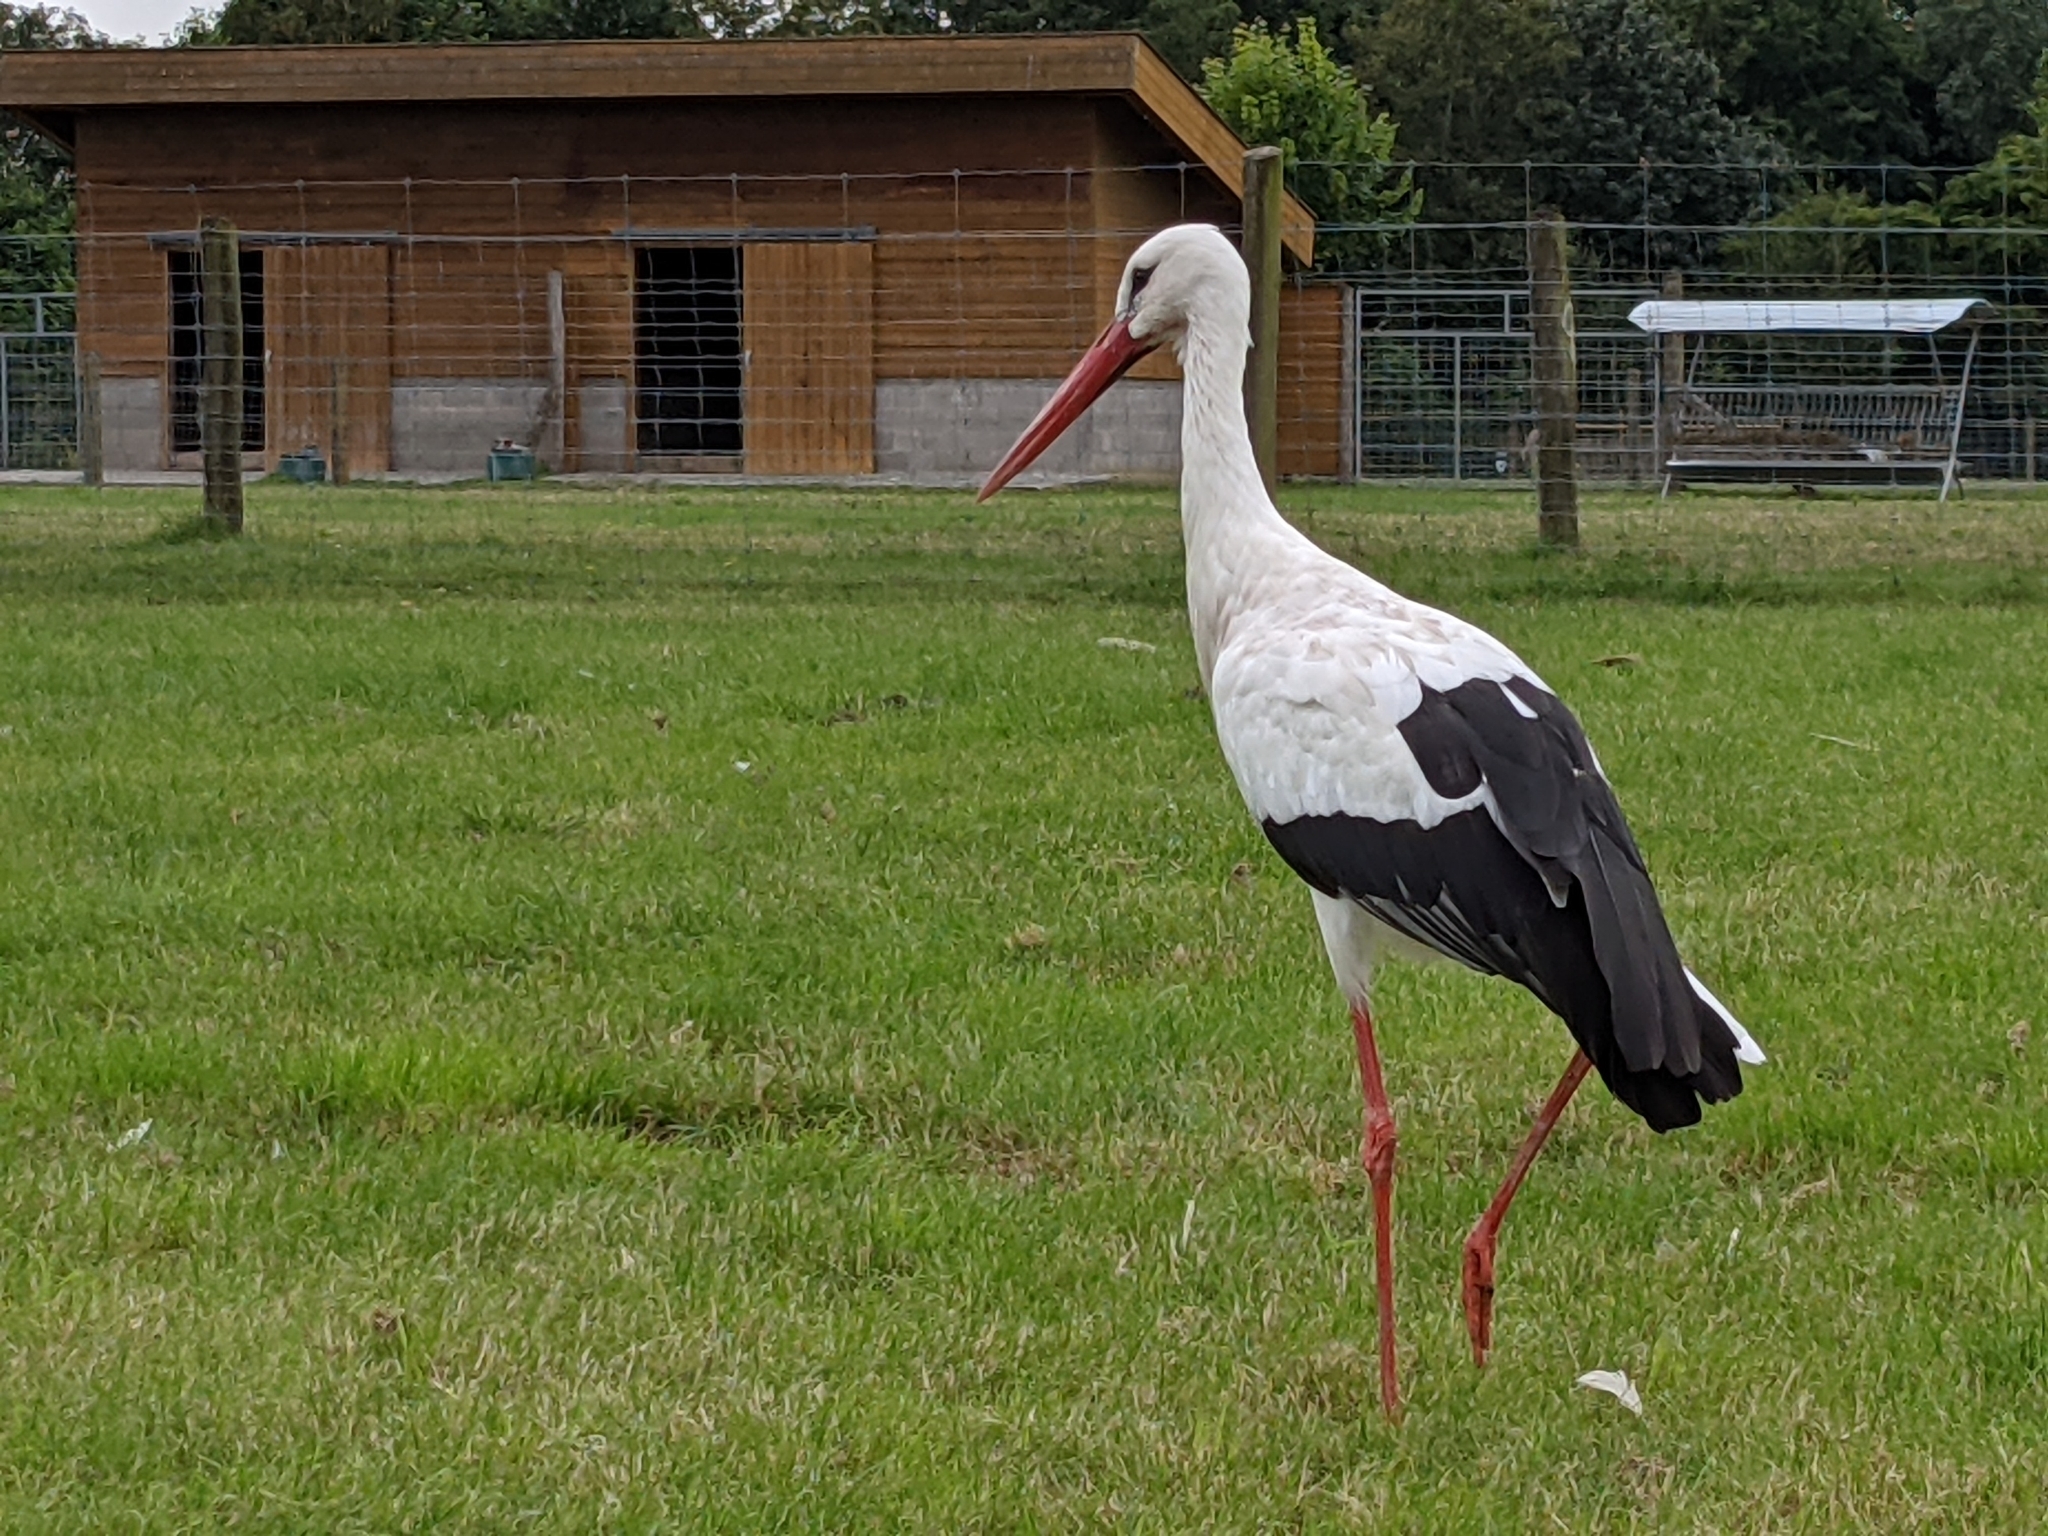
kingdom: Animalia
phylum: Chordata
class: Aves
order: Ciconiiformes
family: Ciconiidae
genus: Ciconia
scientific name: Ciconia ciconia
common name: White stork
